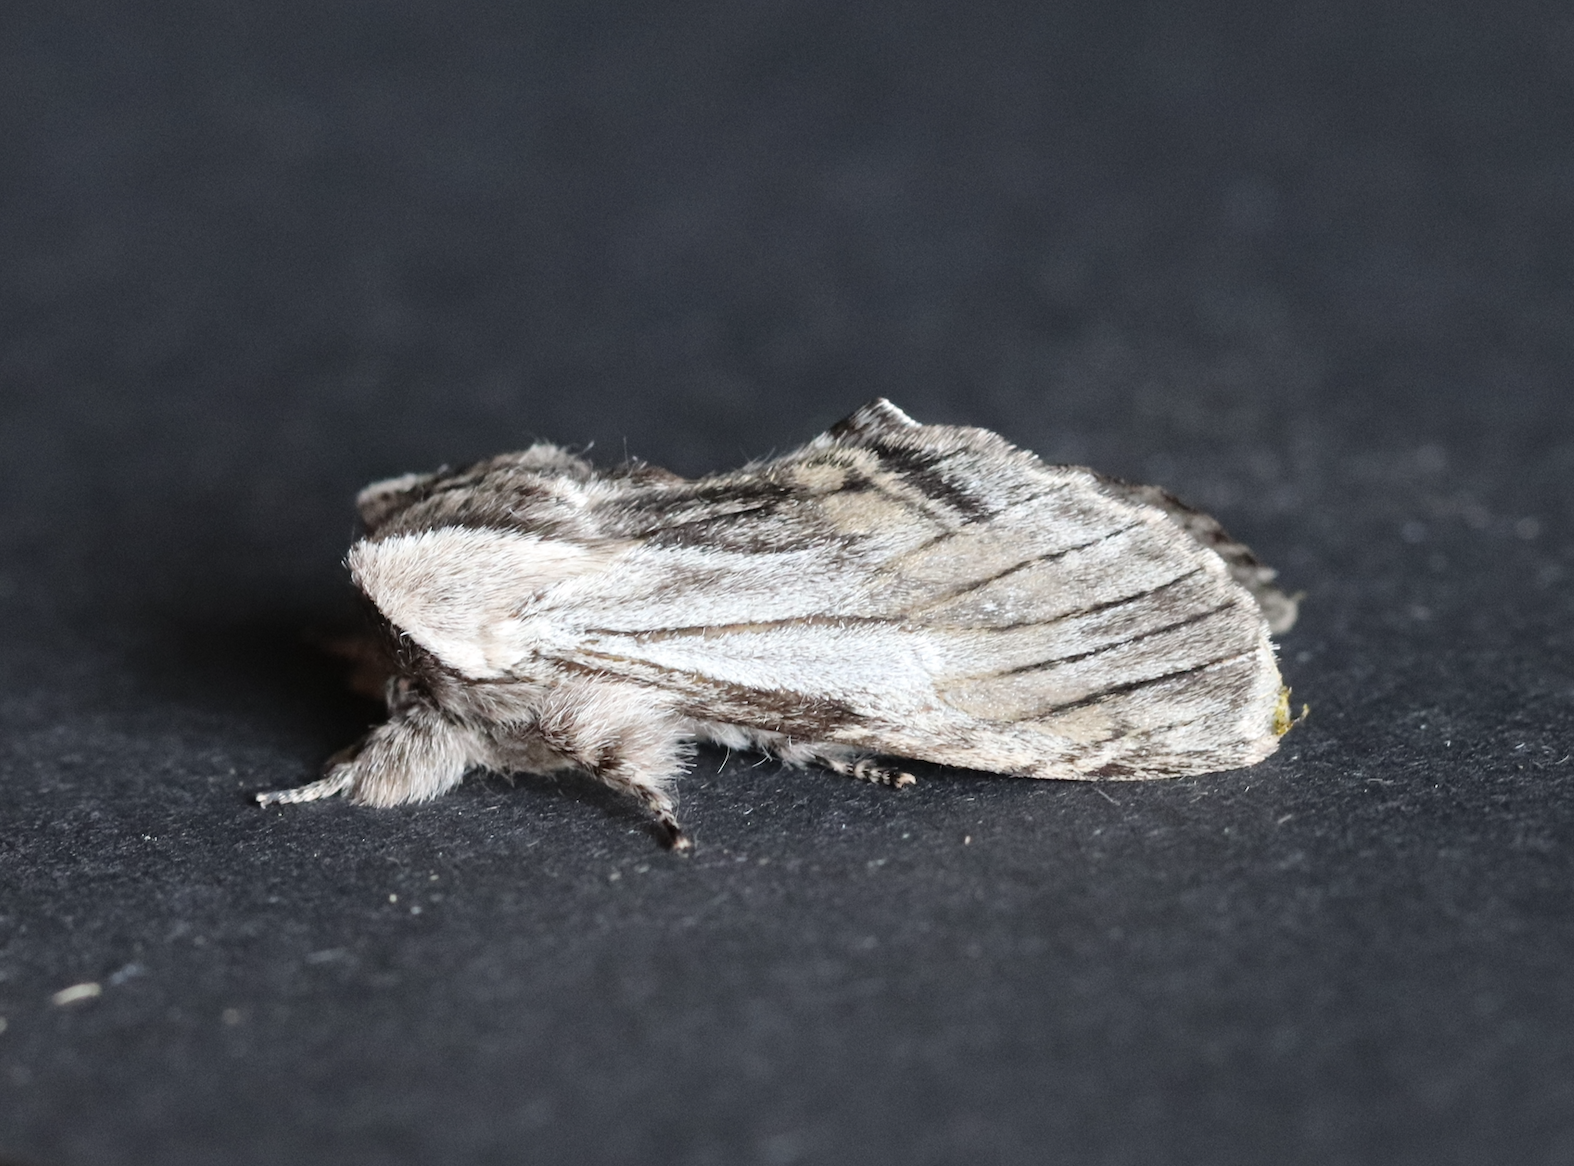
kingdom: Animalia
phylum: Arthropoda
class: Insecta
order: Lepidoptera
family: Notodontidae
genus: Harpyia
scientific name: Harpyia milhauseri
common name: Tawny prominent
